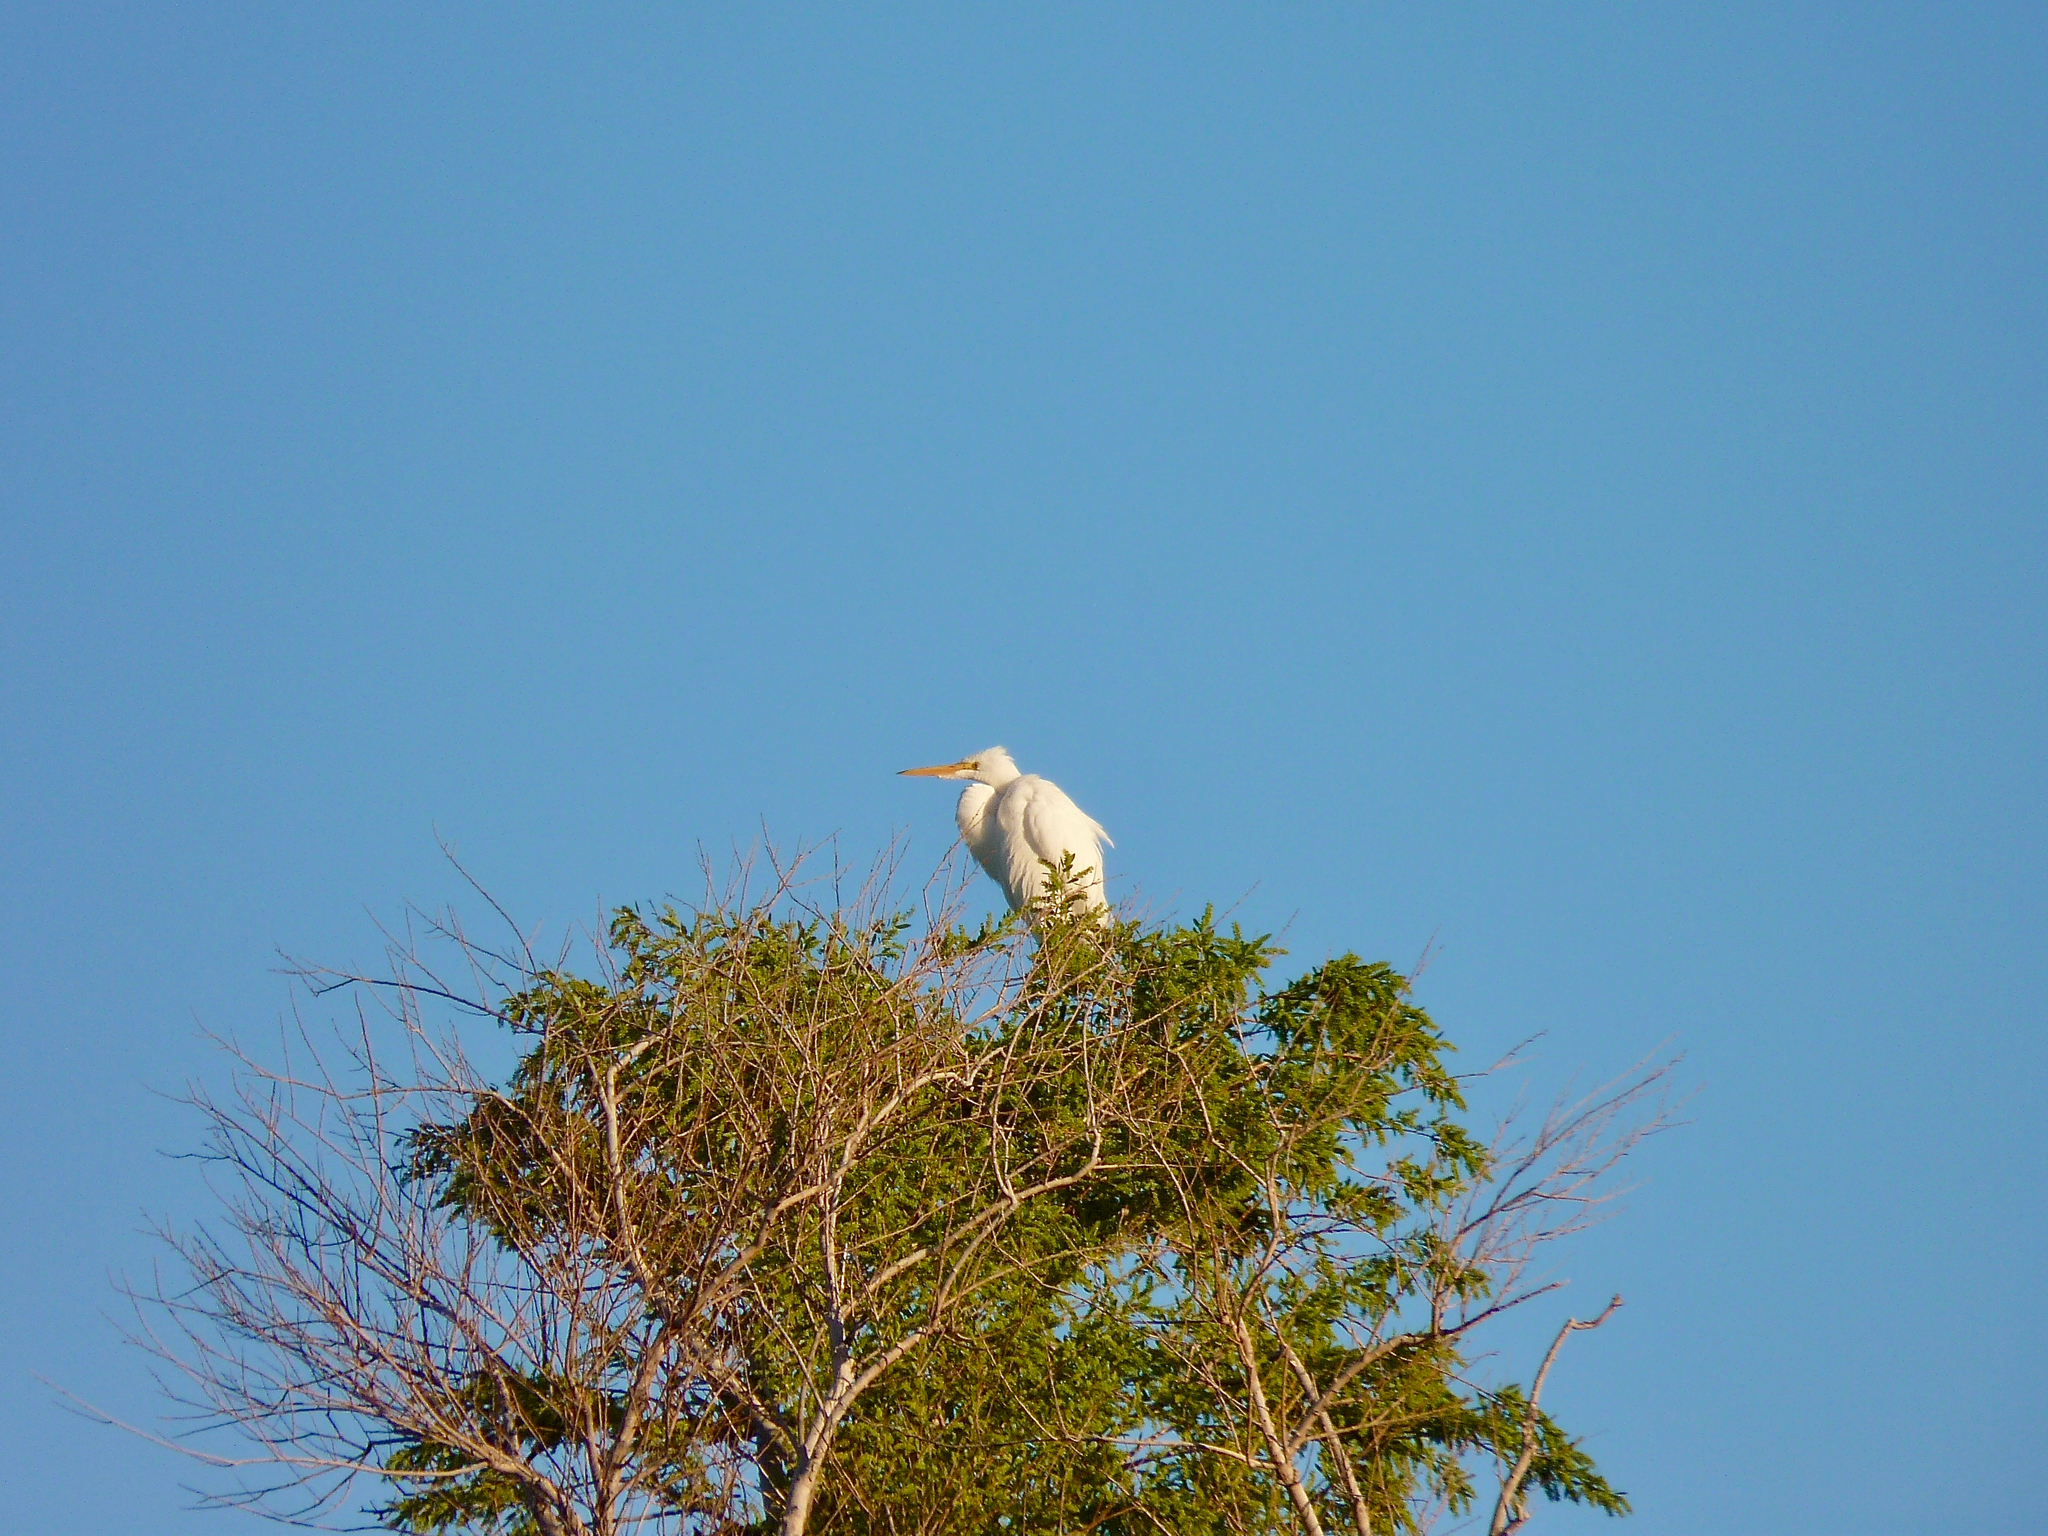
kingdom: Animalia
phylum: Chordata
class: Aves
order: Pelecaniformes
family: Ardeidae
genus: Ardea
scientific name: Ardea alba
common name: Great egret
